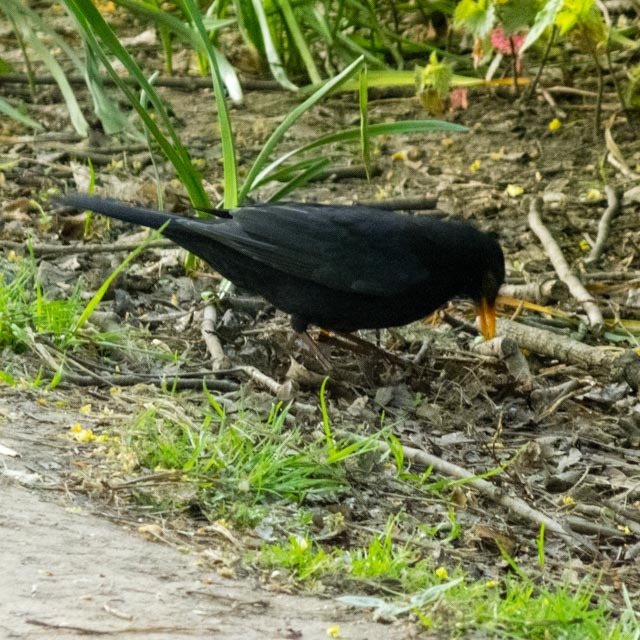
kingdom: Animalia
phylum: Chordata
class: Aves
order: Passeriformes
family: Turdidae
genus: Turdus
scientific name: Turdus merula
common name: Common blackbird
